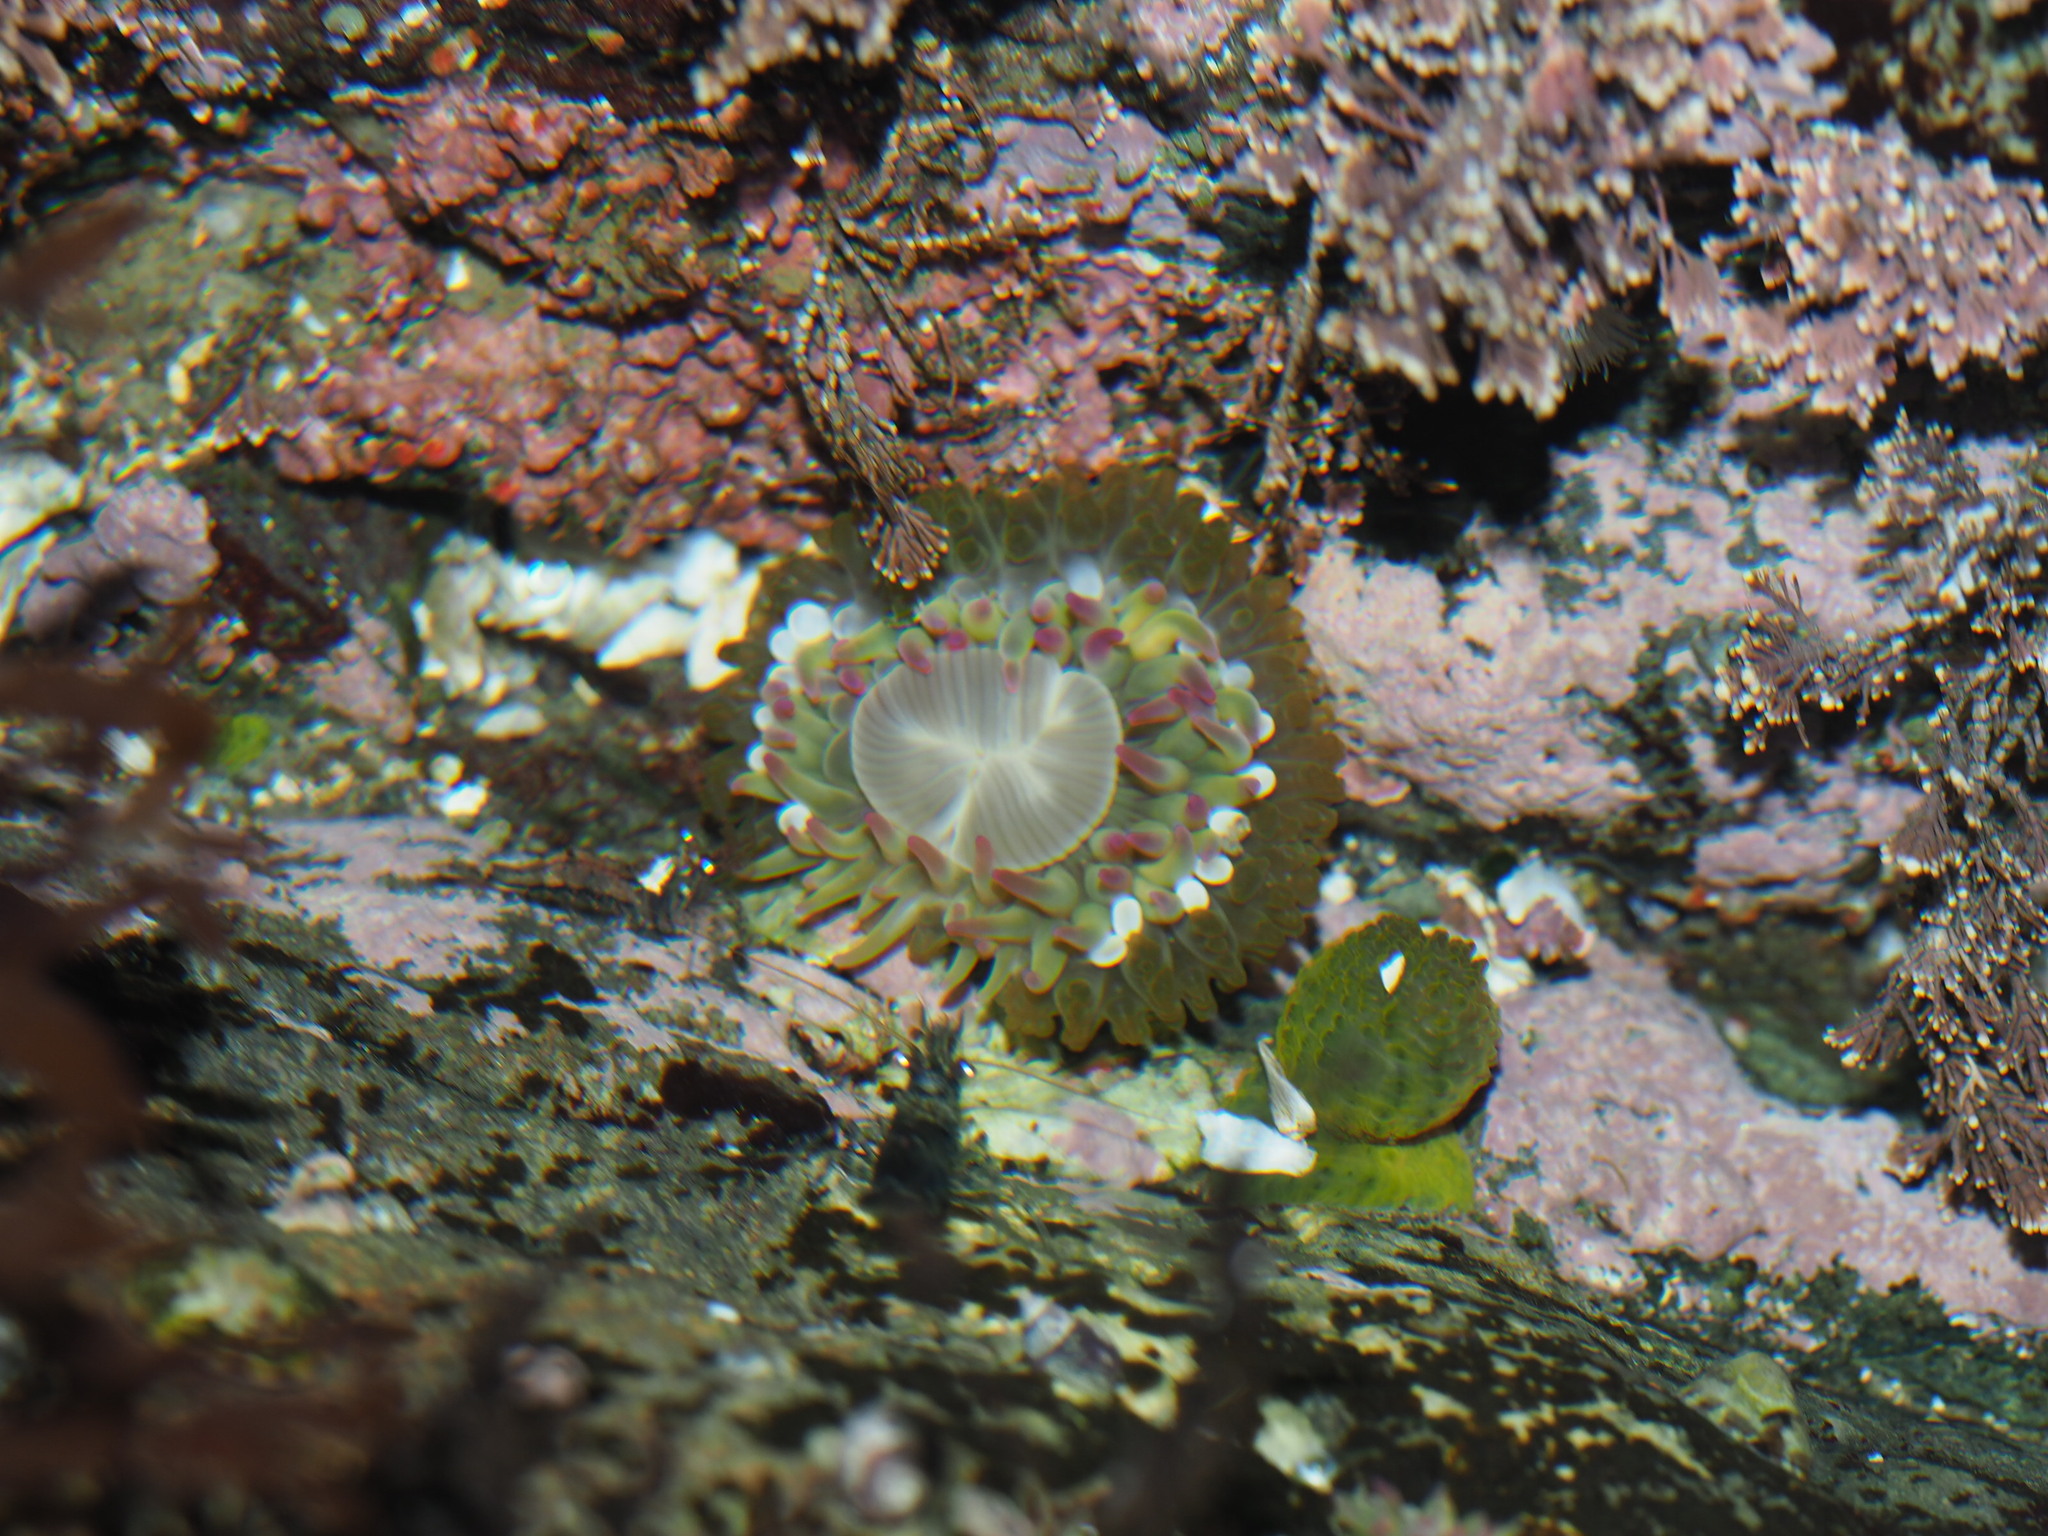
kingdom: Animalia
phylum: Cnidaria
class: Anthozoa
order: Actiniaria
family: Actiniidae
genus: Anthopleura
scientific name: Anthopleura elegantissima
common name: Clonal anemone
